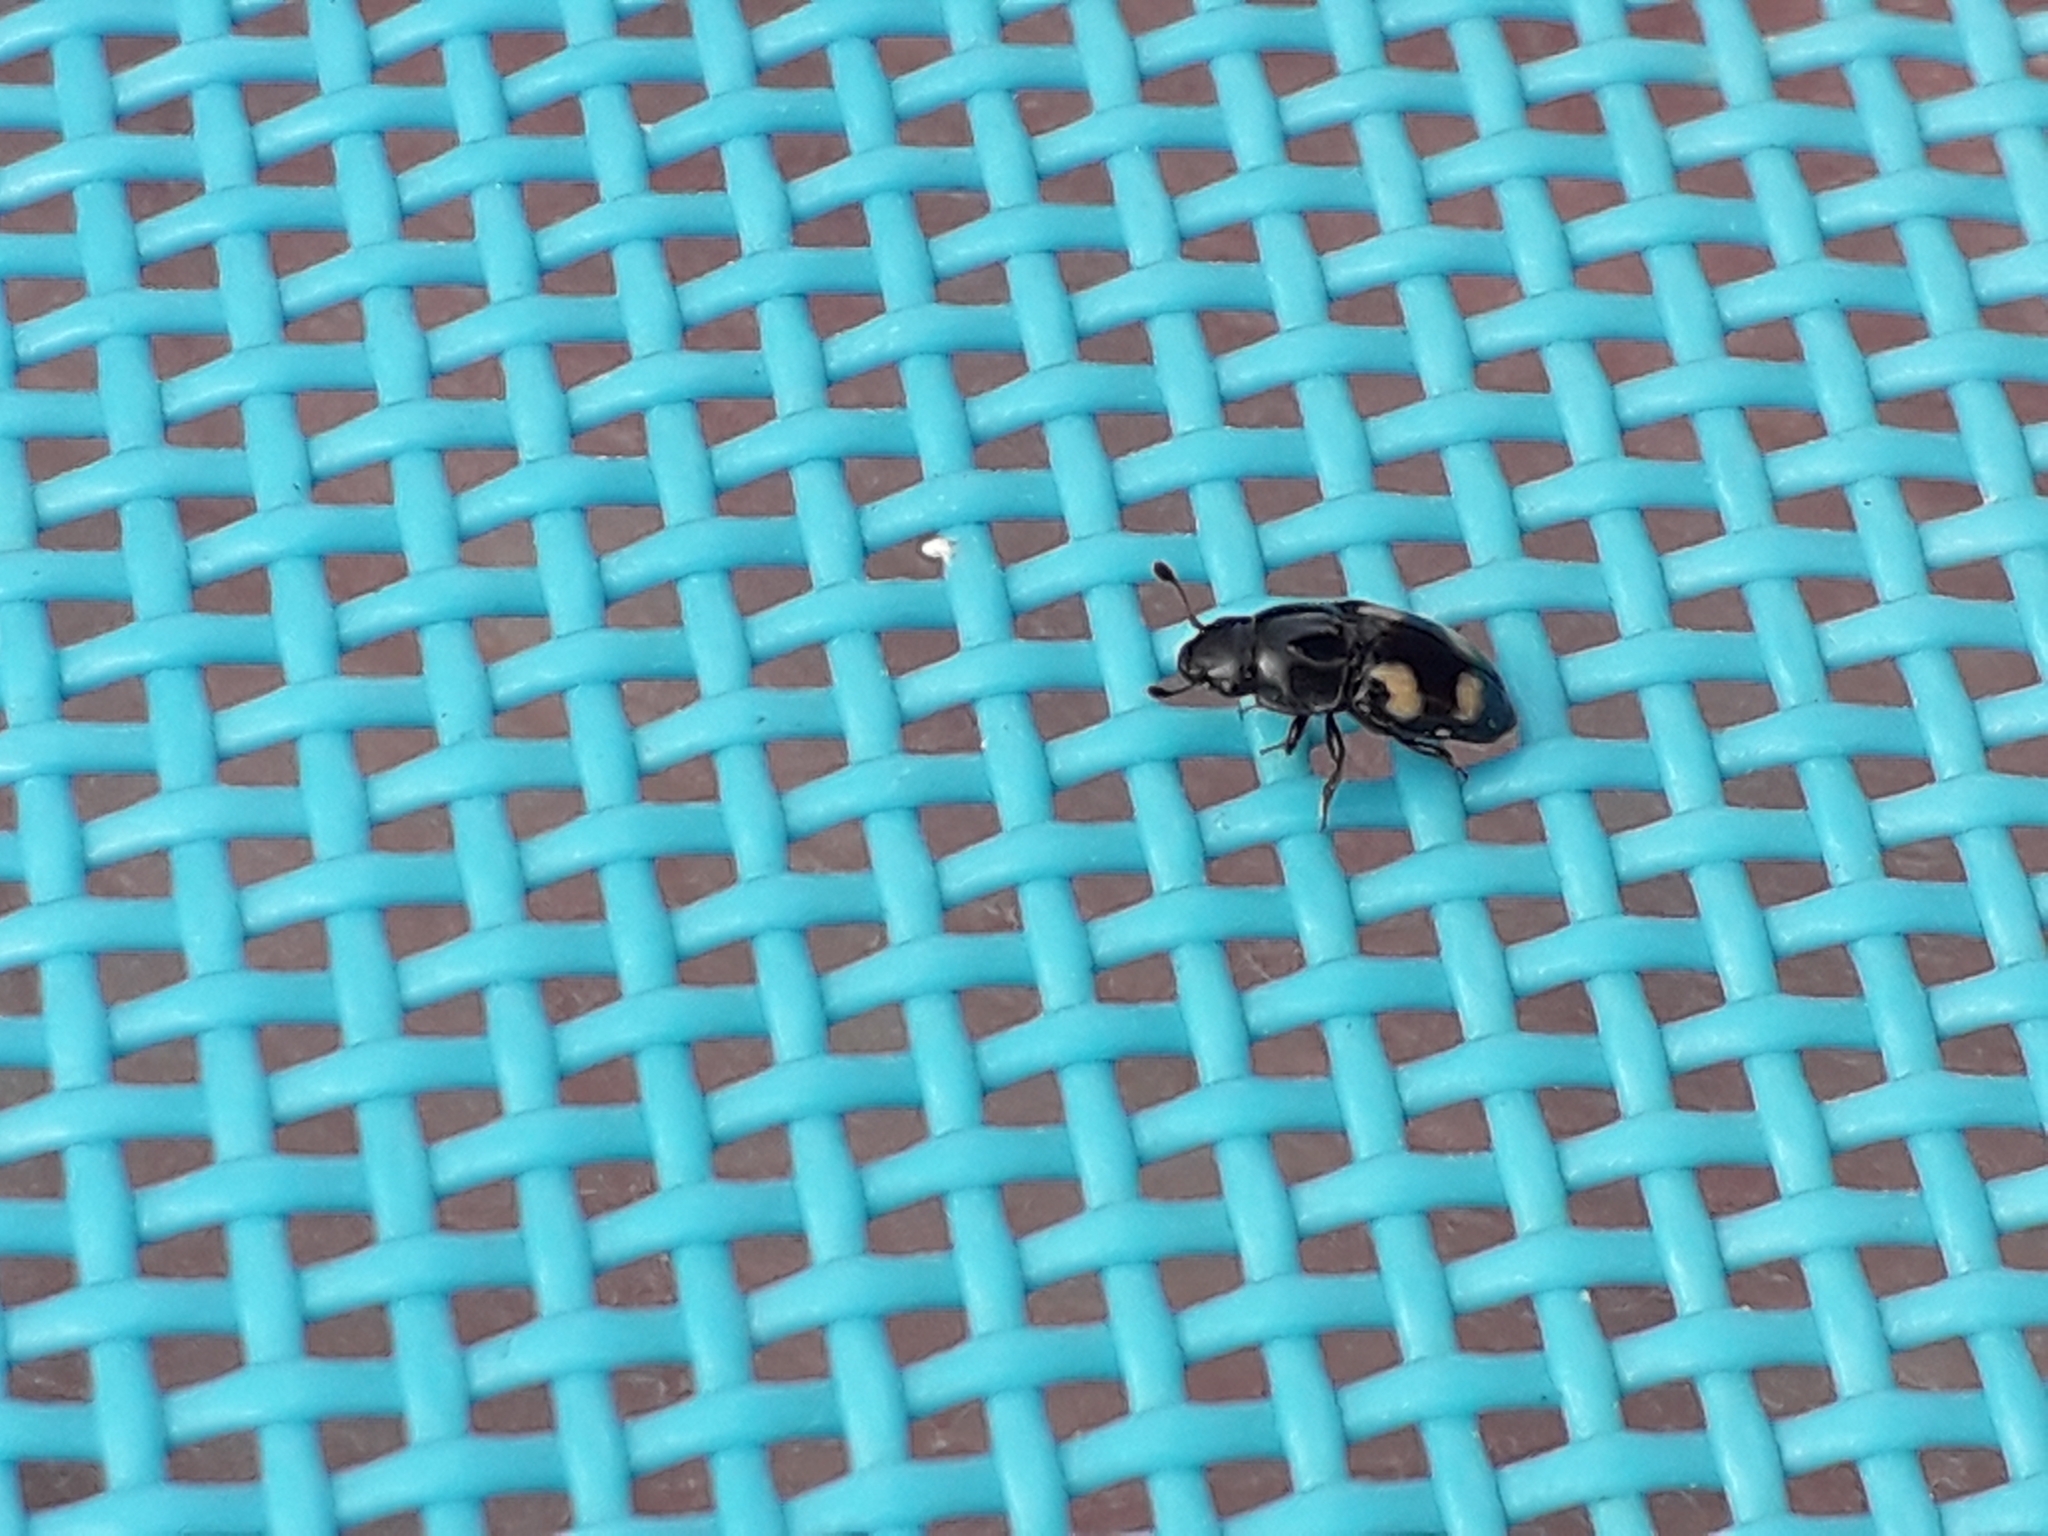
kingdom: Animalia
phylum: Arthropoda
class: Insecta
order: Coleoptera
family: Nitidulidae
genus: Glischrochilus
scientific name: Glischrochilus quadrisignatus
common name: Picnic beetle
